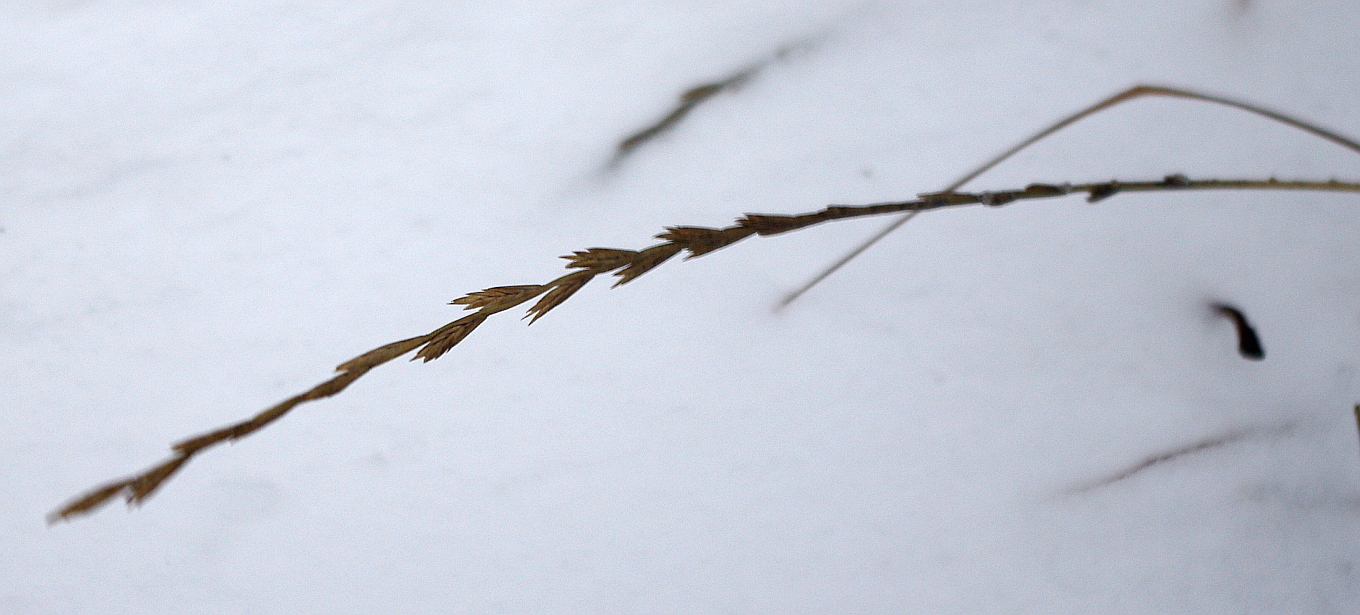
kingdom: Plantae
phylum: Tracheophyta
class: Liliopsida
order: Poales
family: Poaceae
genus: Lolium
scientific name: Lolium perenne
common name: Perennial ryegrass
